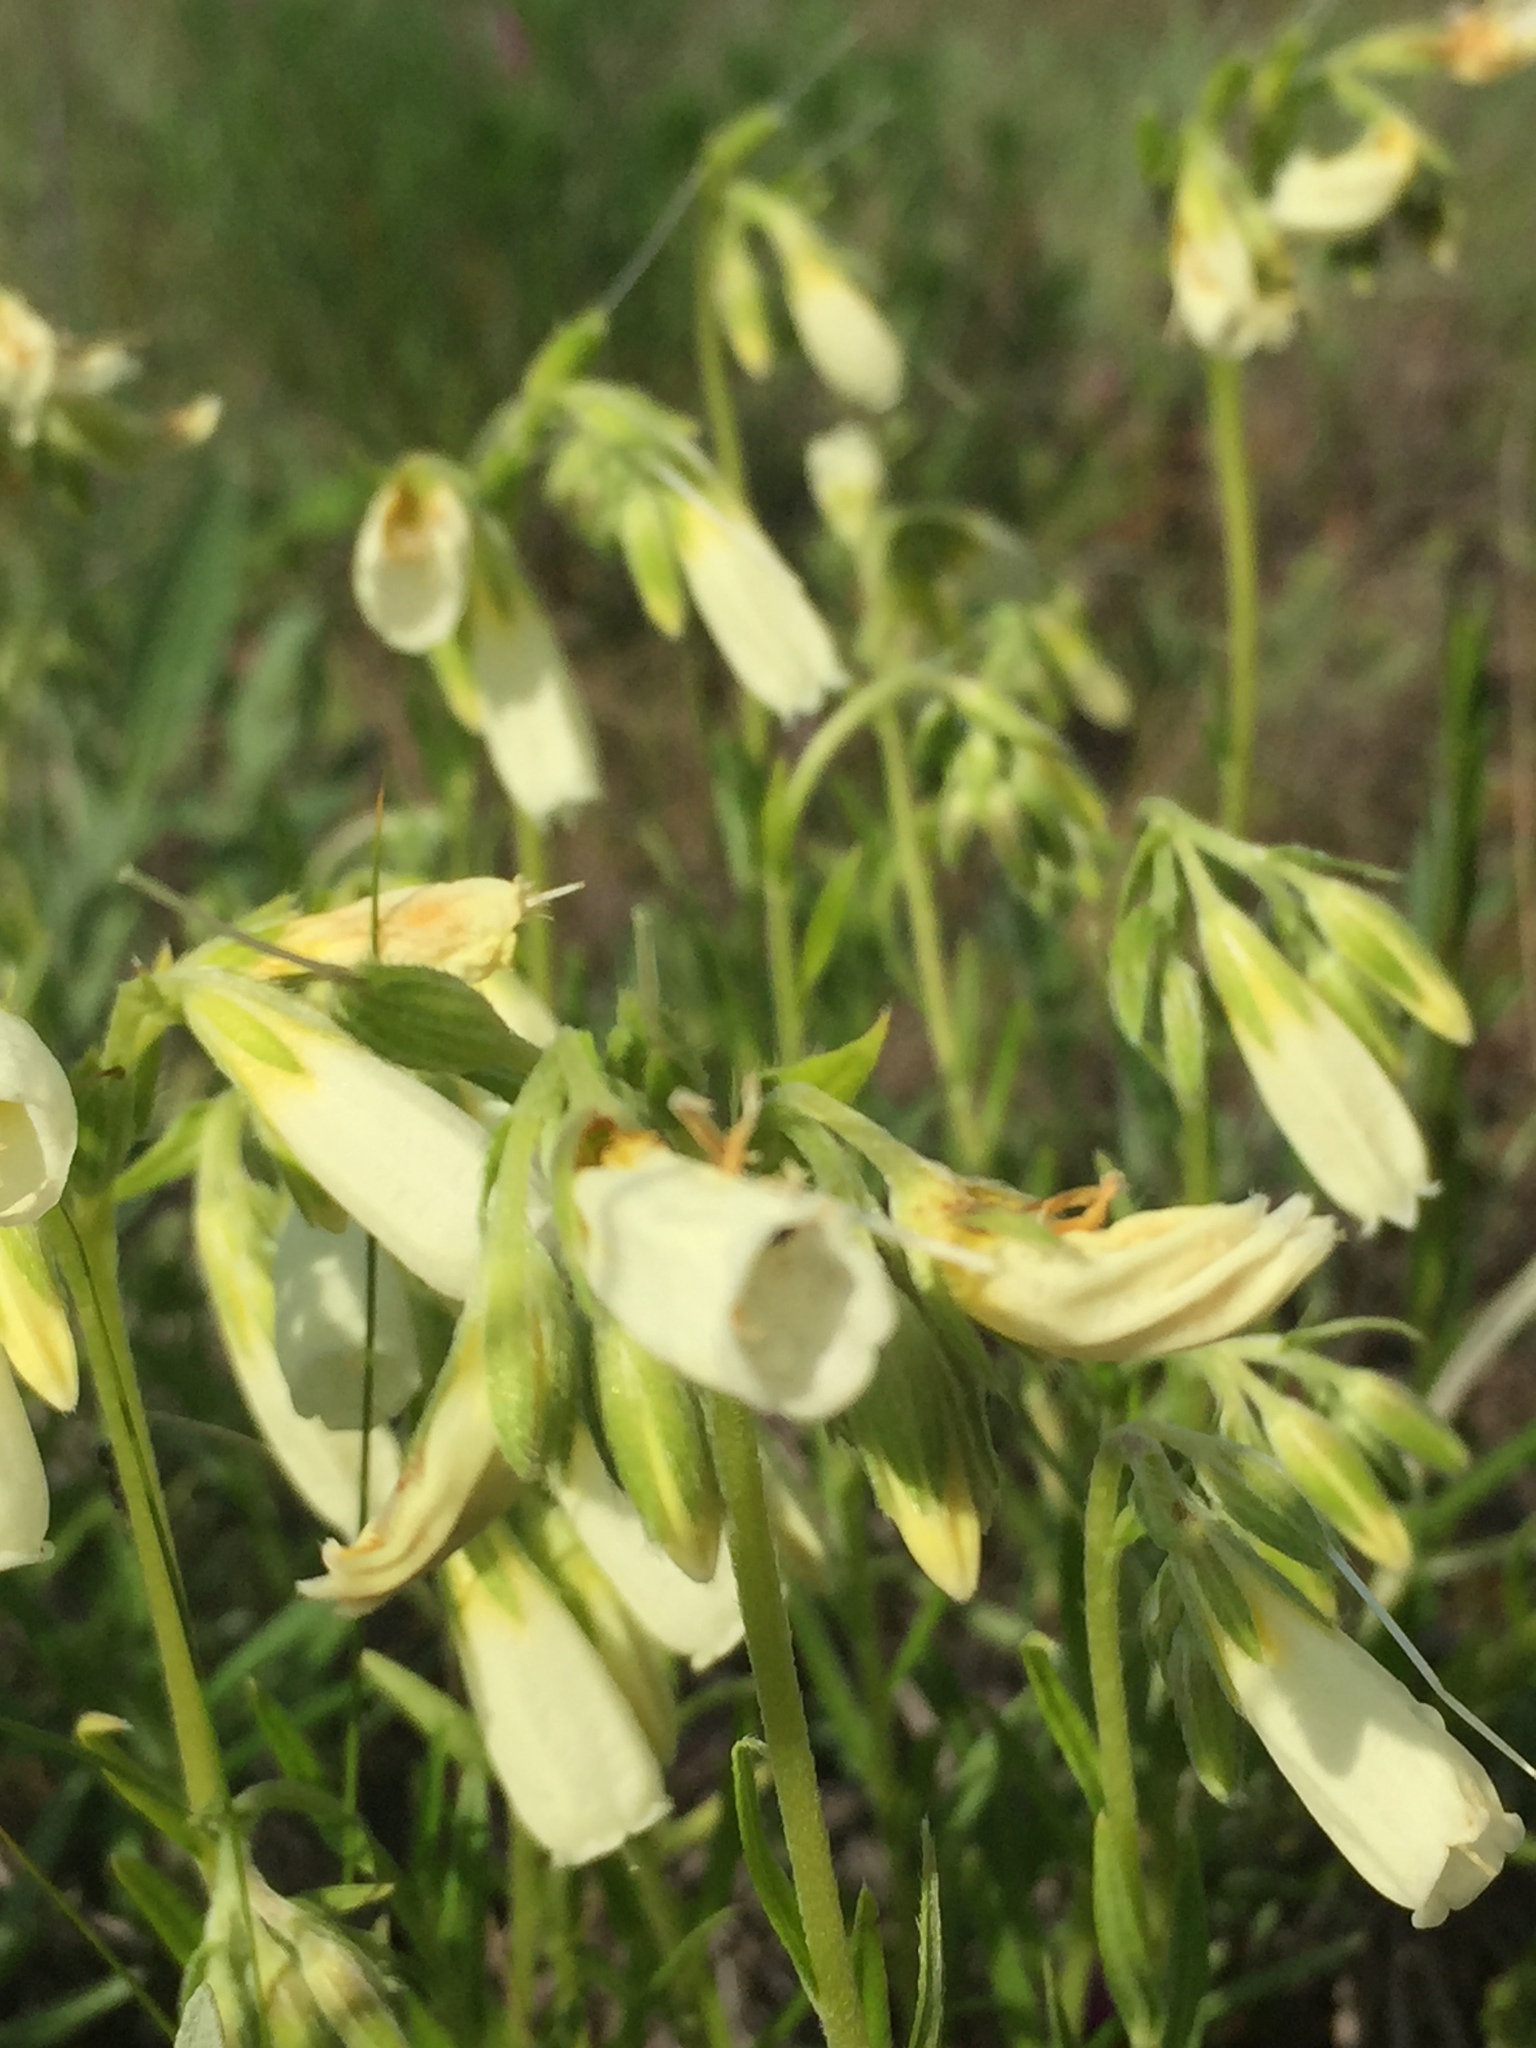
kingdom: Plantae
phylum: Tracheophyta
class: Magnoliopsida
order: Boraginales
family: Boraginaceae
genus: Onosma
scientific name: Onosma simplicissima
